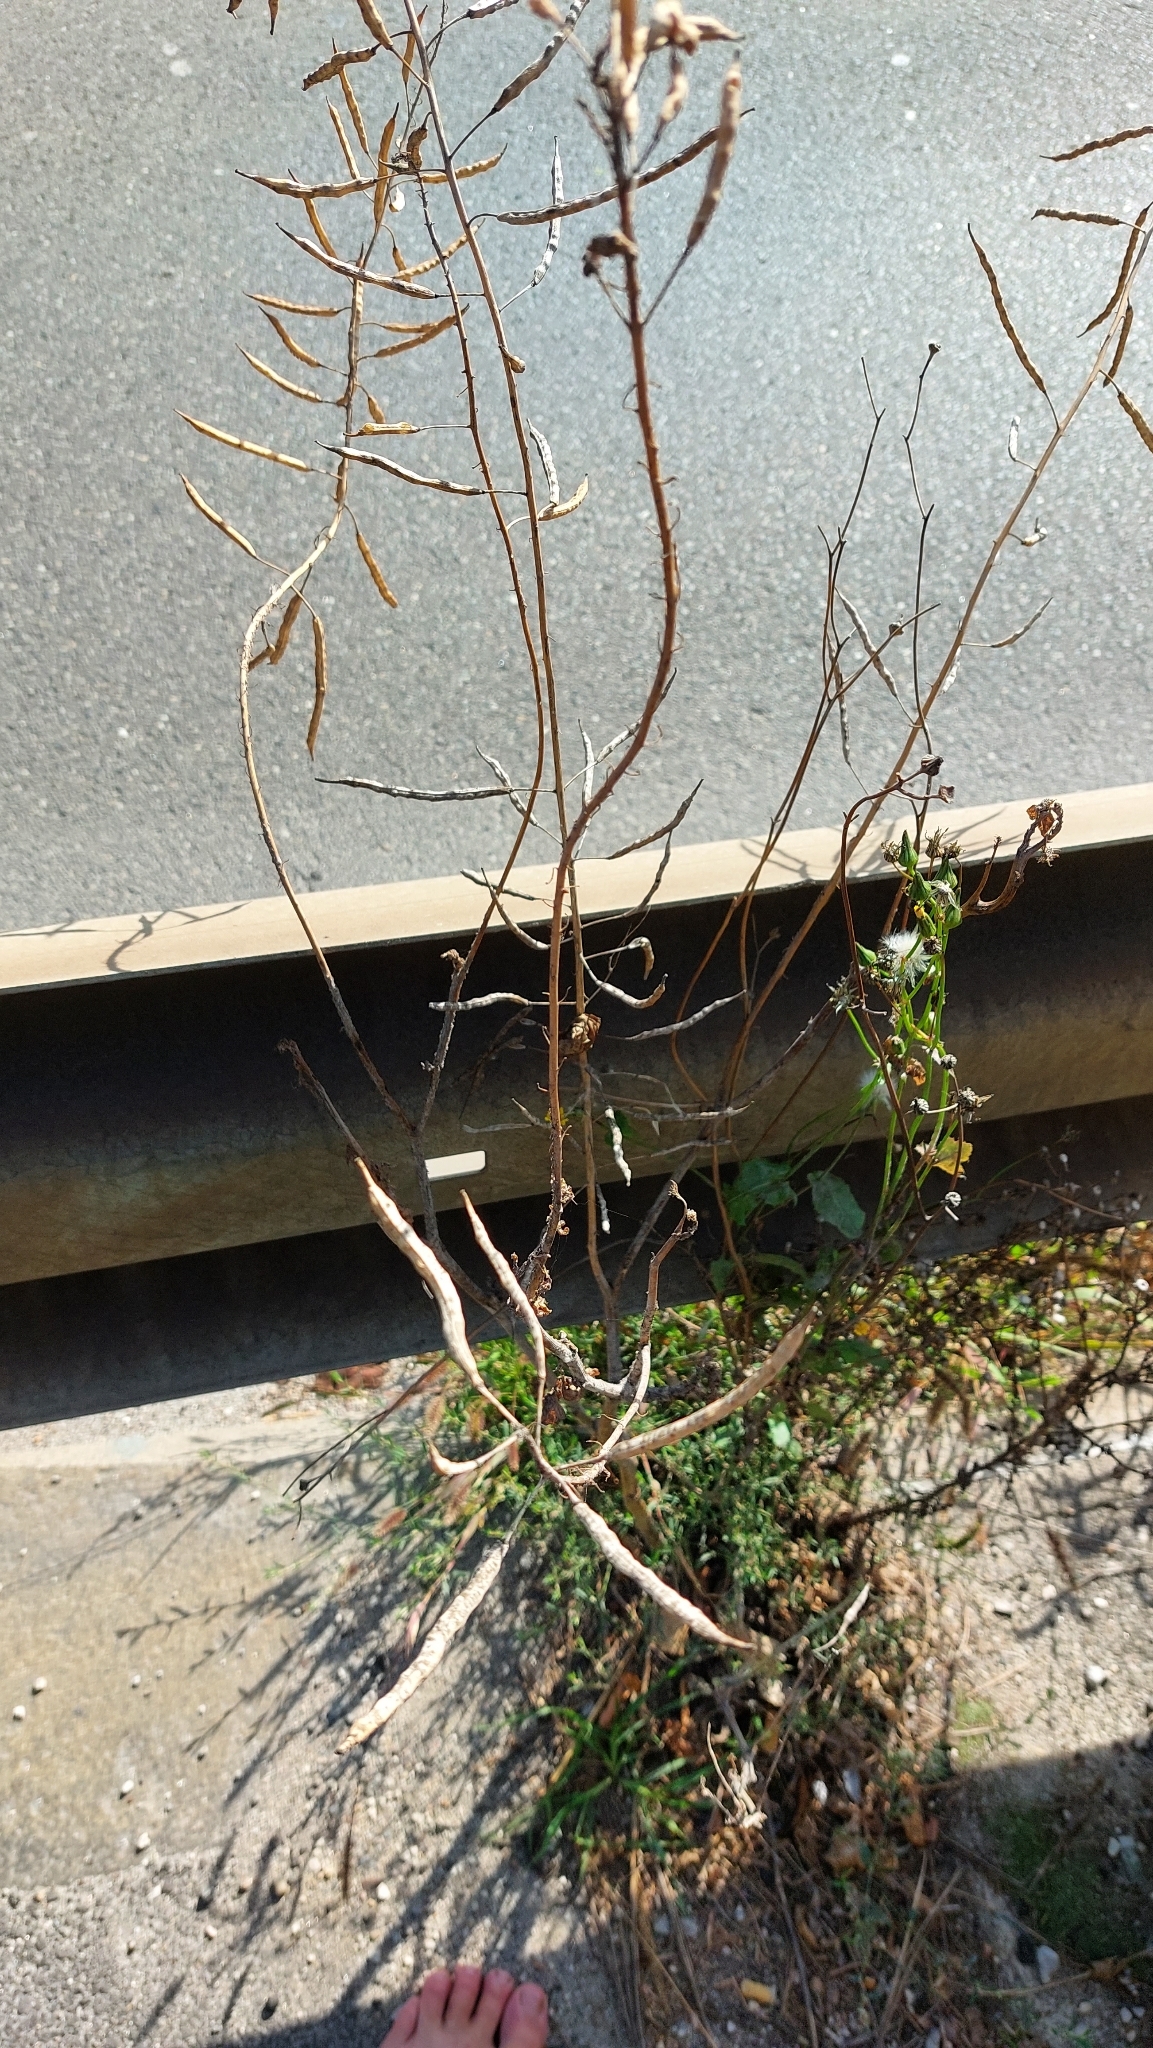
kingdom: Plantae
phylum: Tracheophyta
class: Magnoliopsida
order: Brassicales
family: Brassicaceae
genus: Brassica
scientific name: Brassica napus
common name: Rape
